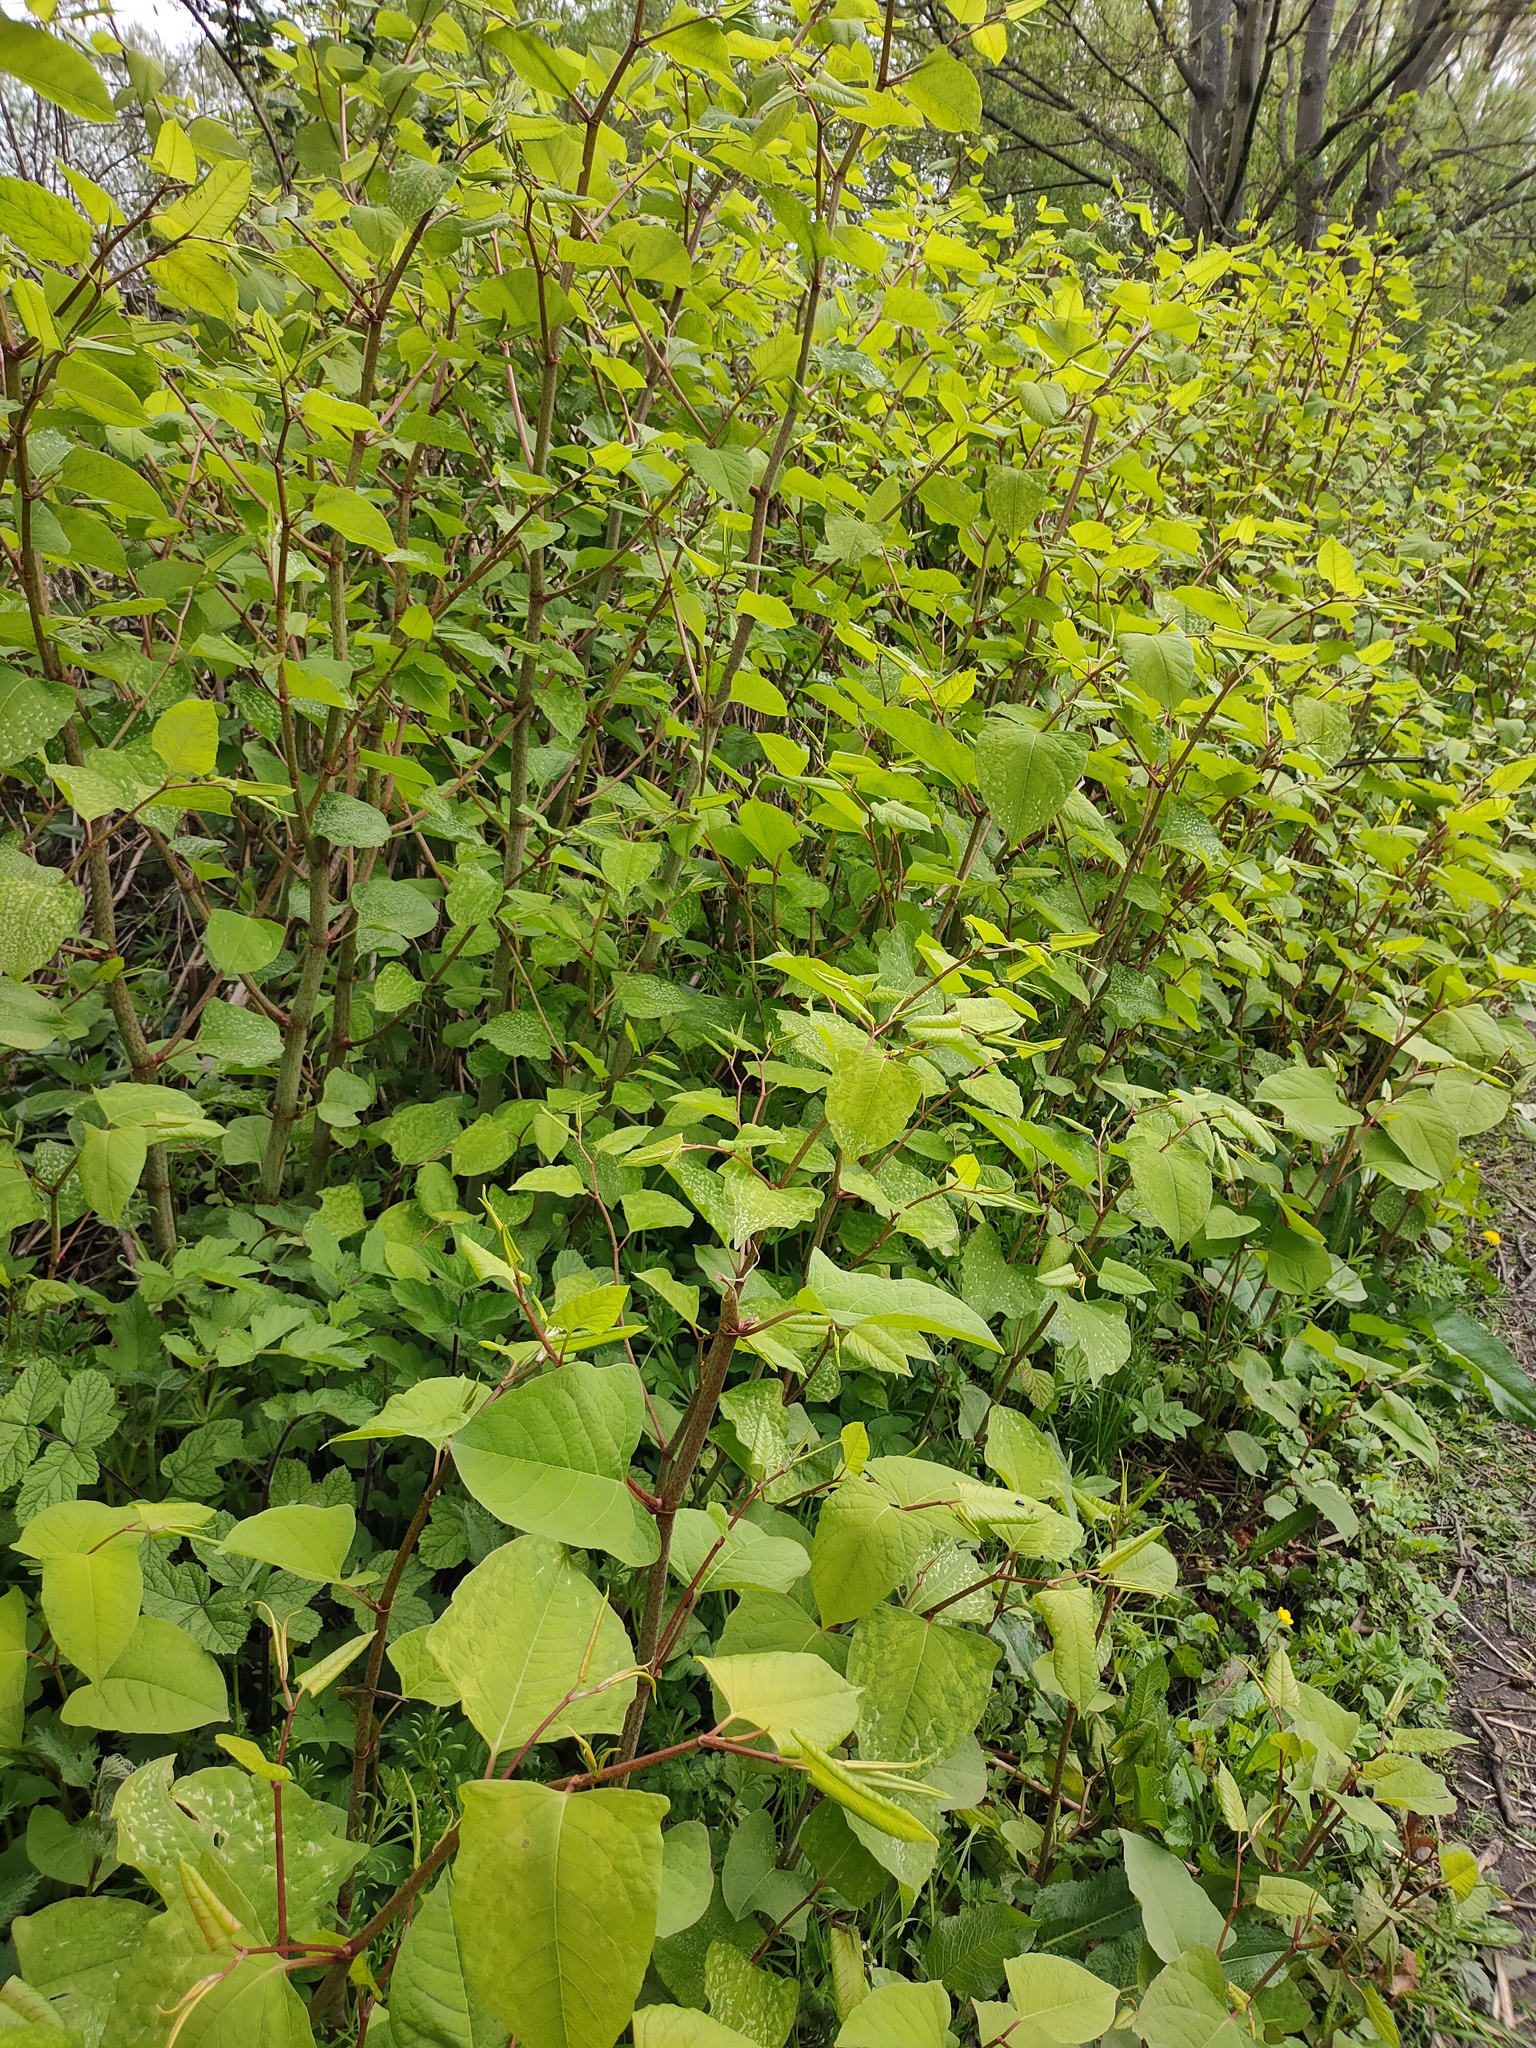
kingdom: Plantae
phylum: Tracheophyta
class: Magnoliopsida
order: Caryophyllales
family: Polygonaceae
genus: Reynoutria
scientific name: Reynoutria japonica
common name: Japanese knotweed
